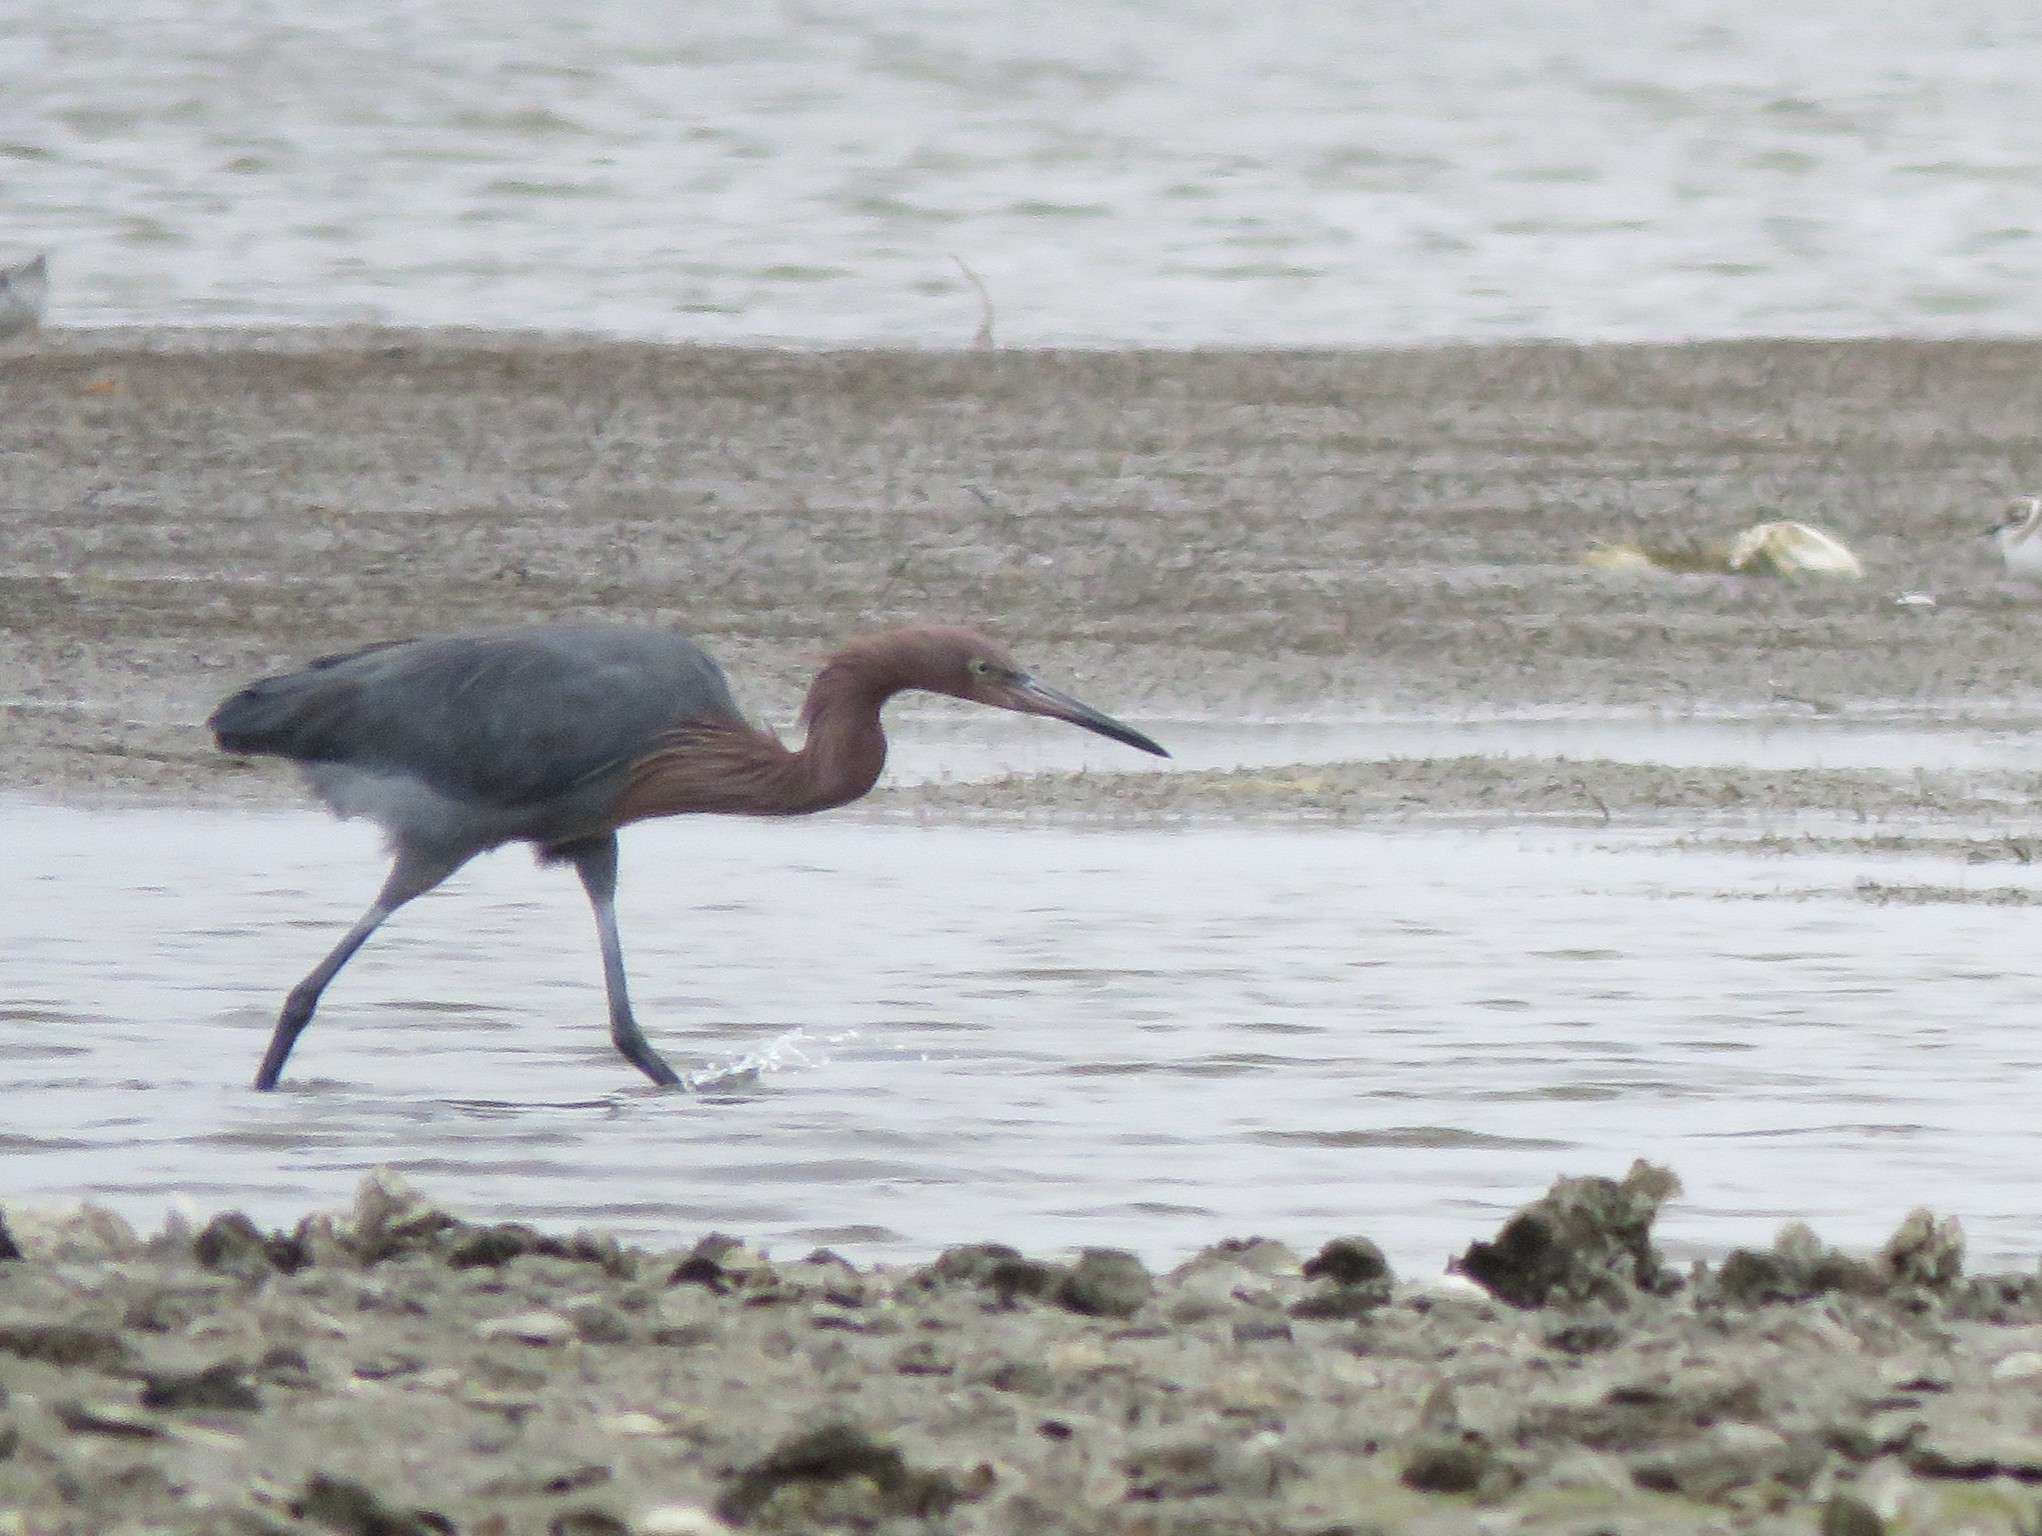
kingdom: Animalia
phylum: Chordata
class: Aves
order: Pelecaniformes
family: Ardeidae
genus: Egretta
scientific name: Egretta rufescens
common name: Reddish egret
